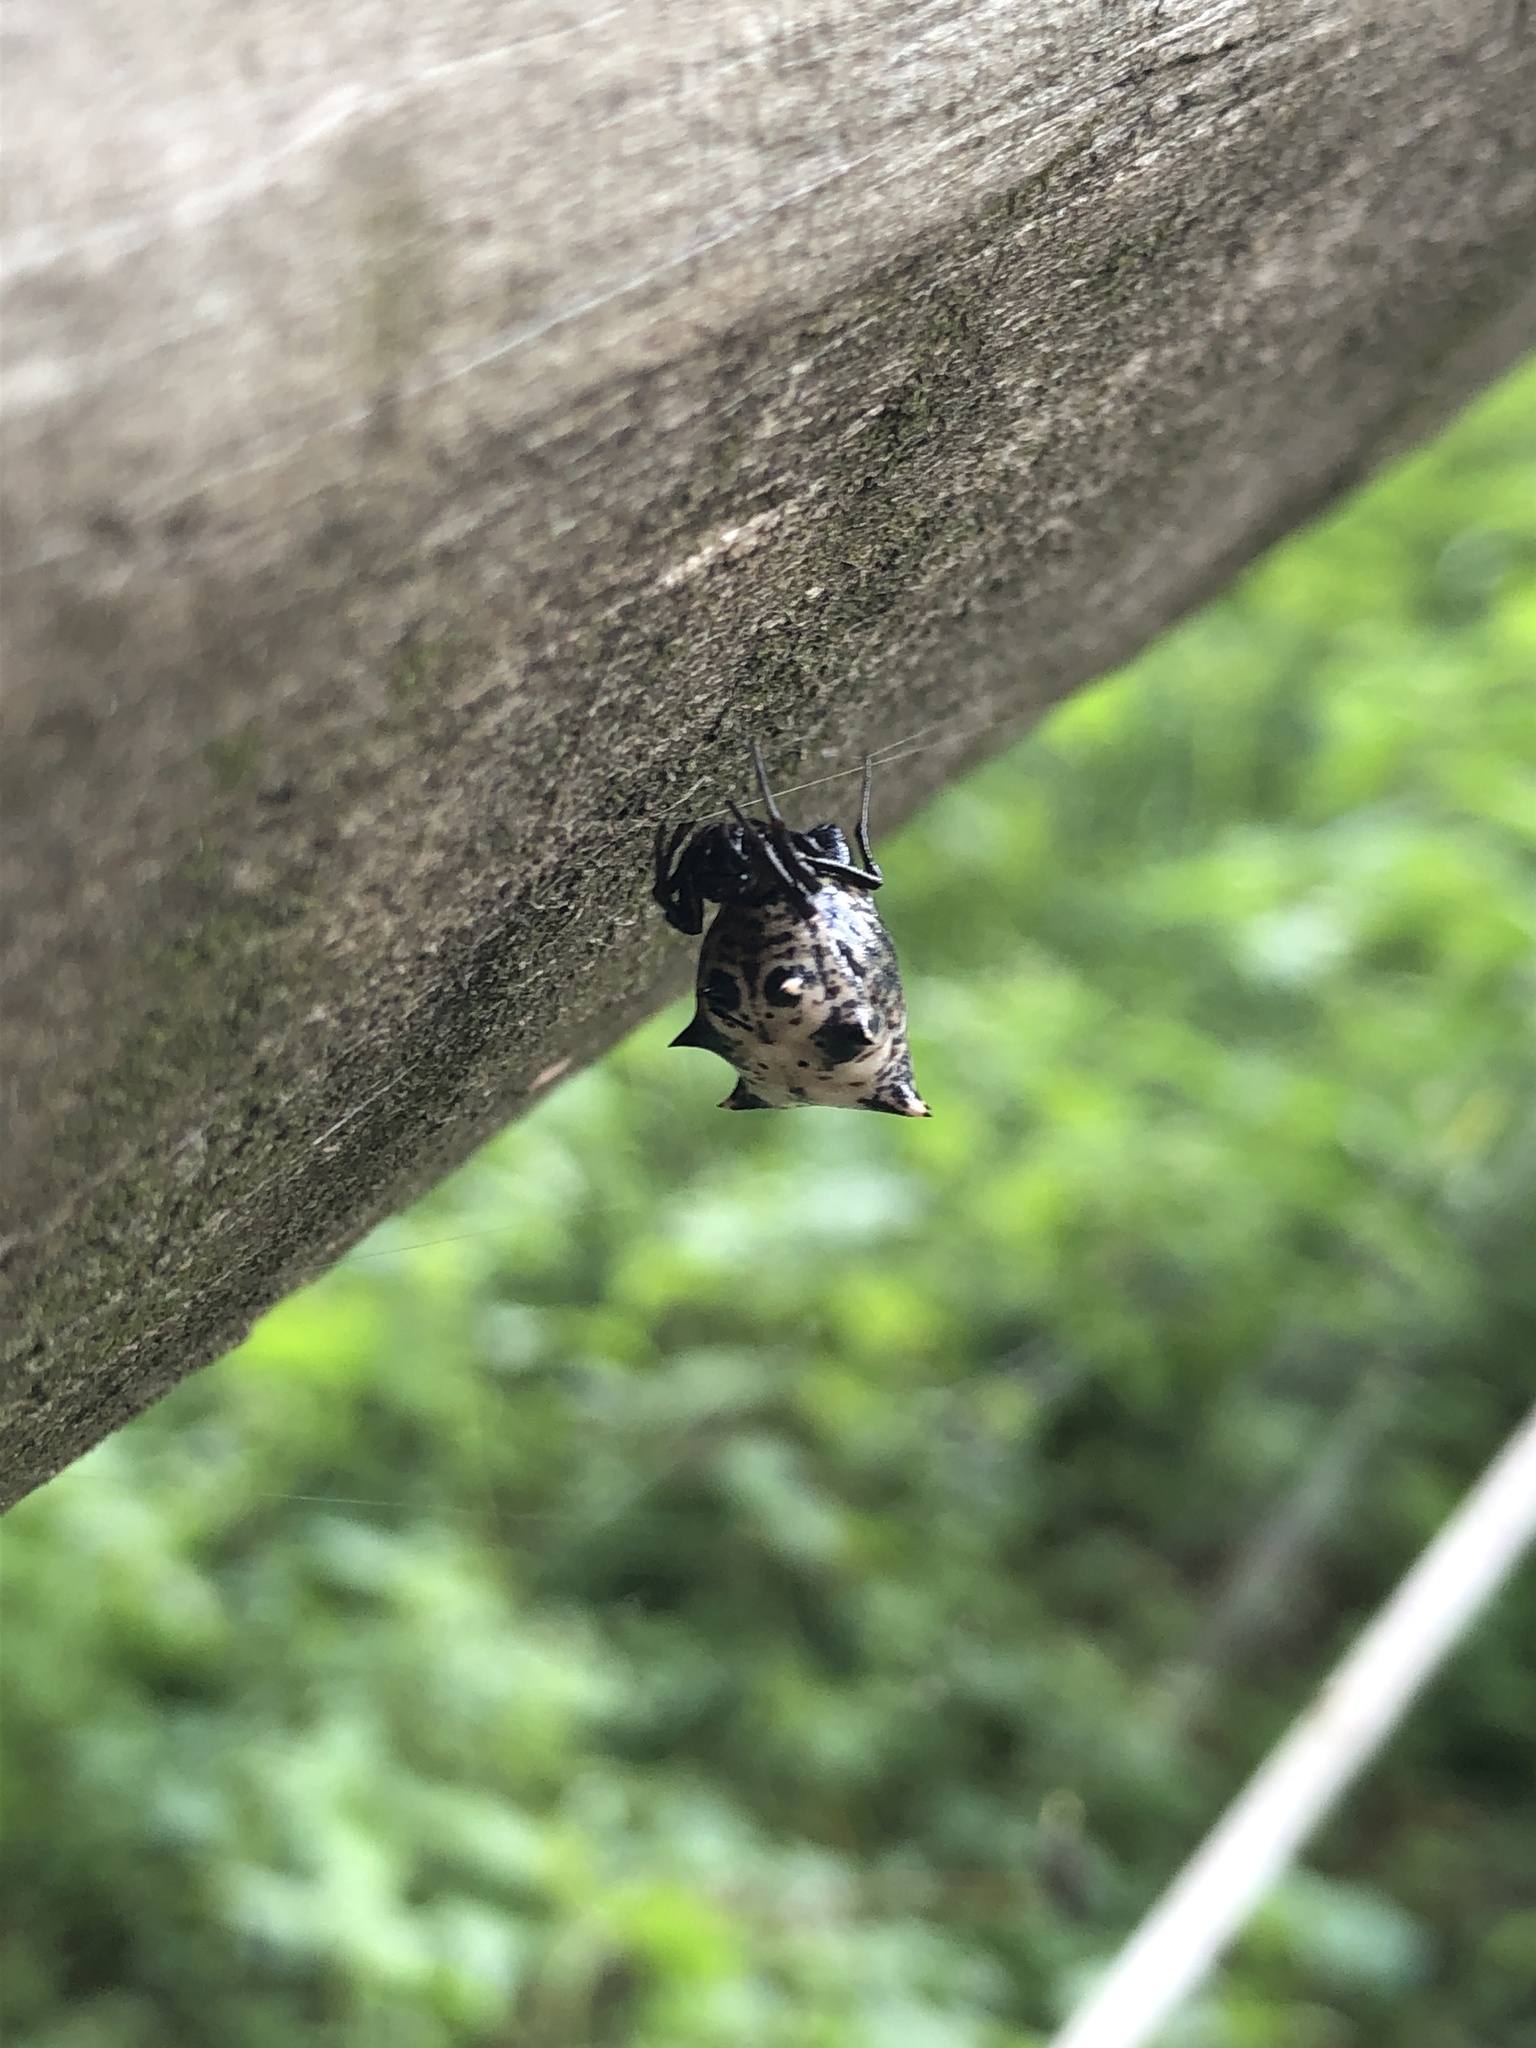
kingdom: Animalia
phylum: Arthropoda
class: Arachnida
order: Araneae
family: Araneidae
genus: Micrathena
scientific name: Micrathena gracilis
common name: Orb weavers
